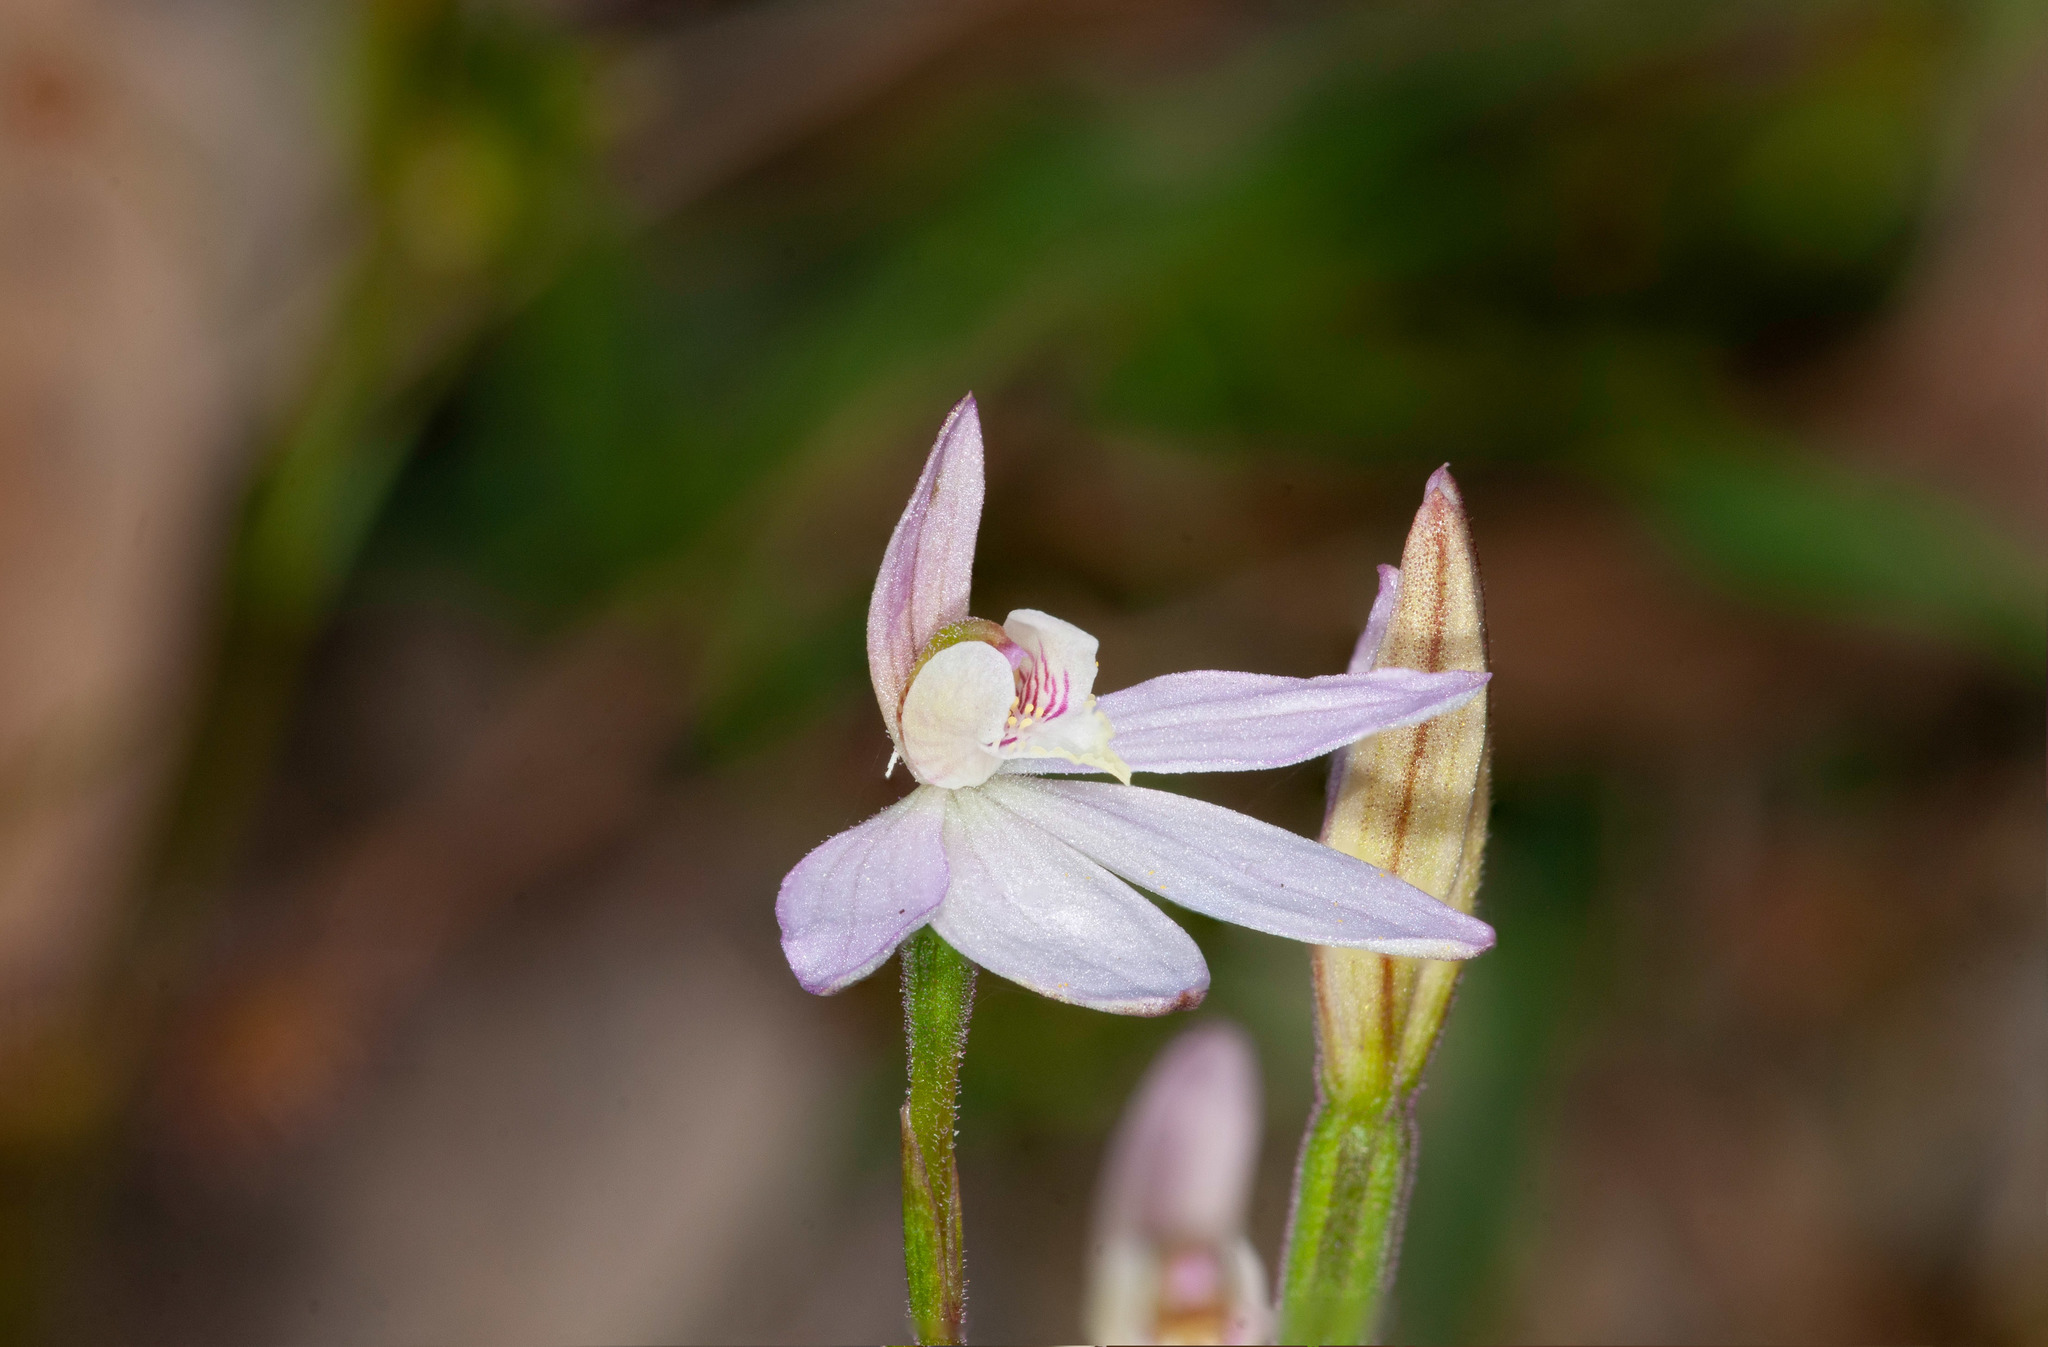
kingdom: Plantae
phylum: Tracheophyta
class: Liliopsida
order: Asparagales
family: Orchidaceae
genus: Caladenia
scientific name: Caladenia carnea
